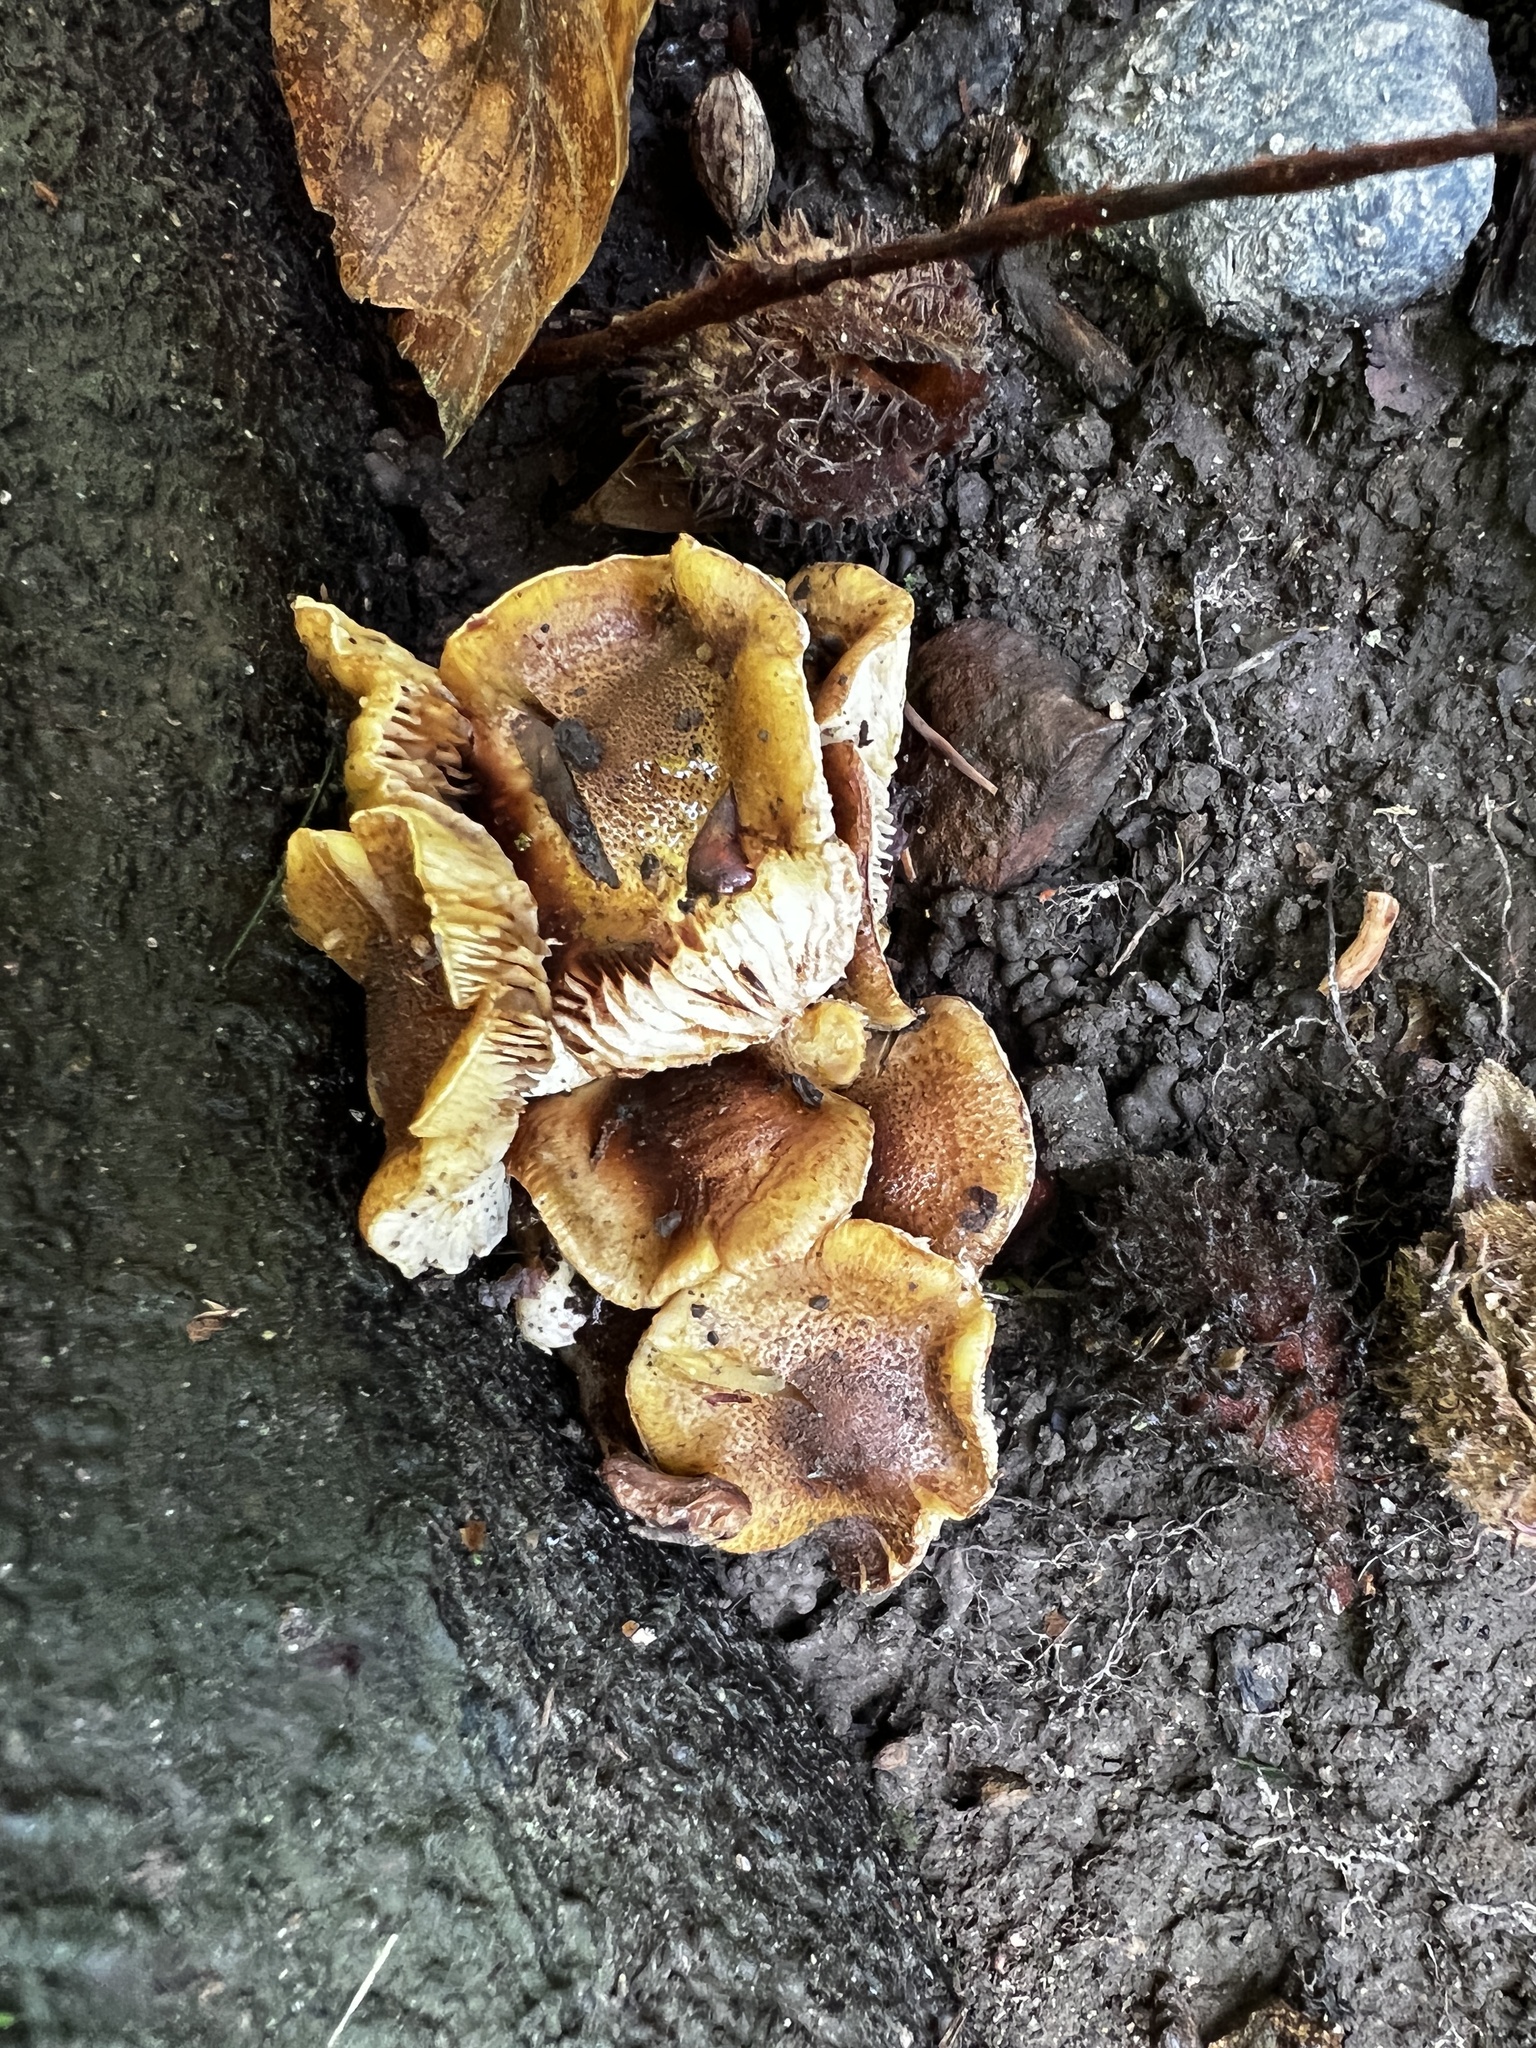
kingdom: Fungi
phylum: Basidiomycota
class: Agaricomycetes
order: Agaricales
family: Strophariaceae
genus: Pholiota
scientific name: Pholiota angustipes
